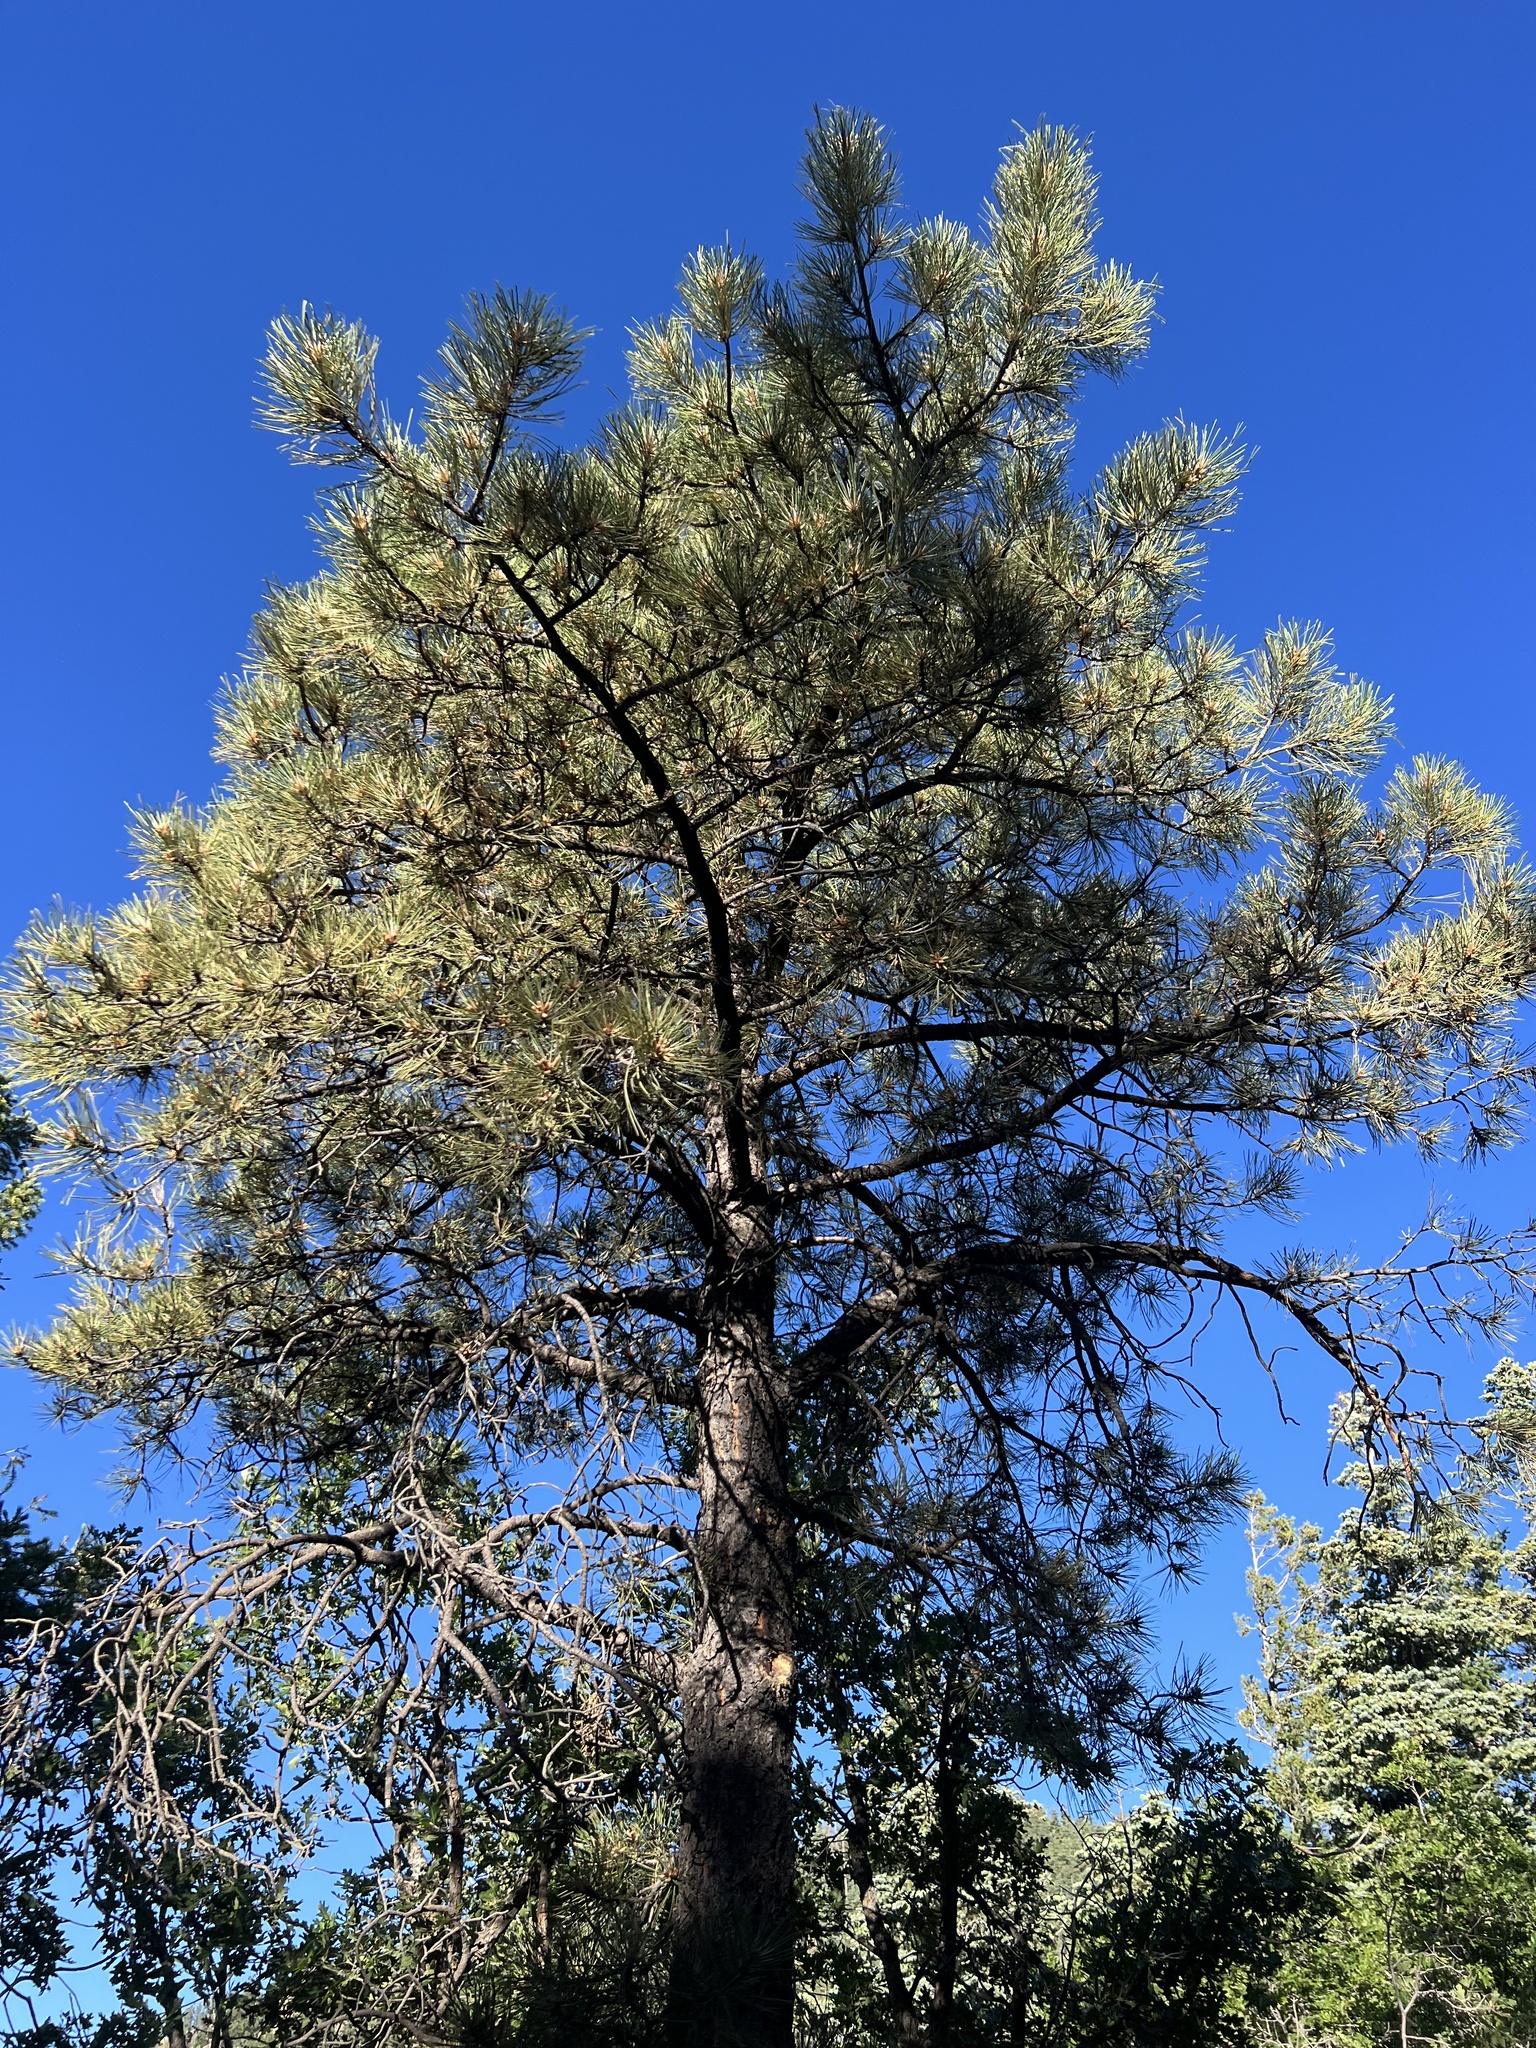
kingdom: Plantae
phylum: Tracheophyta
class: Pinopsida
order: Pinales
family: Pinaceae
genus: Pinus
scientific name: Pinus ponderosa
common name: Western yellow-pine
